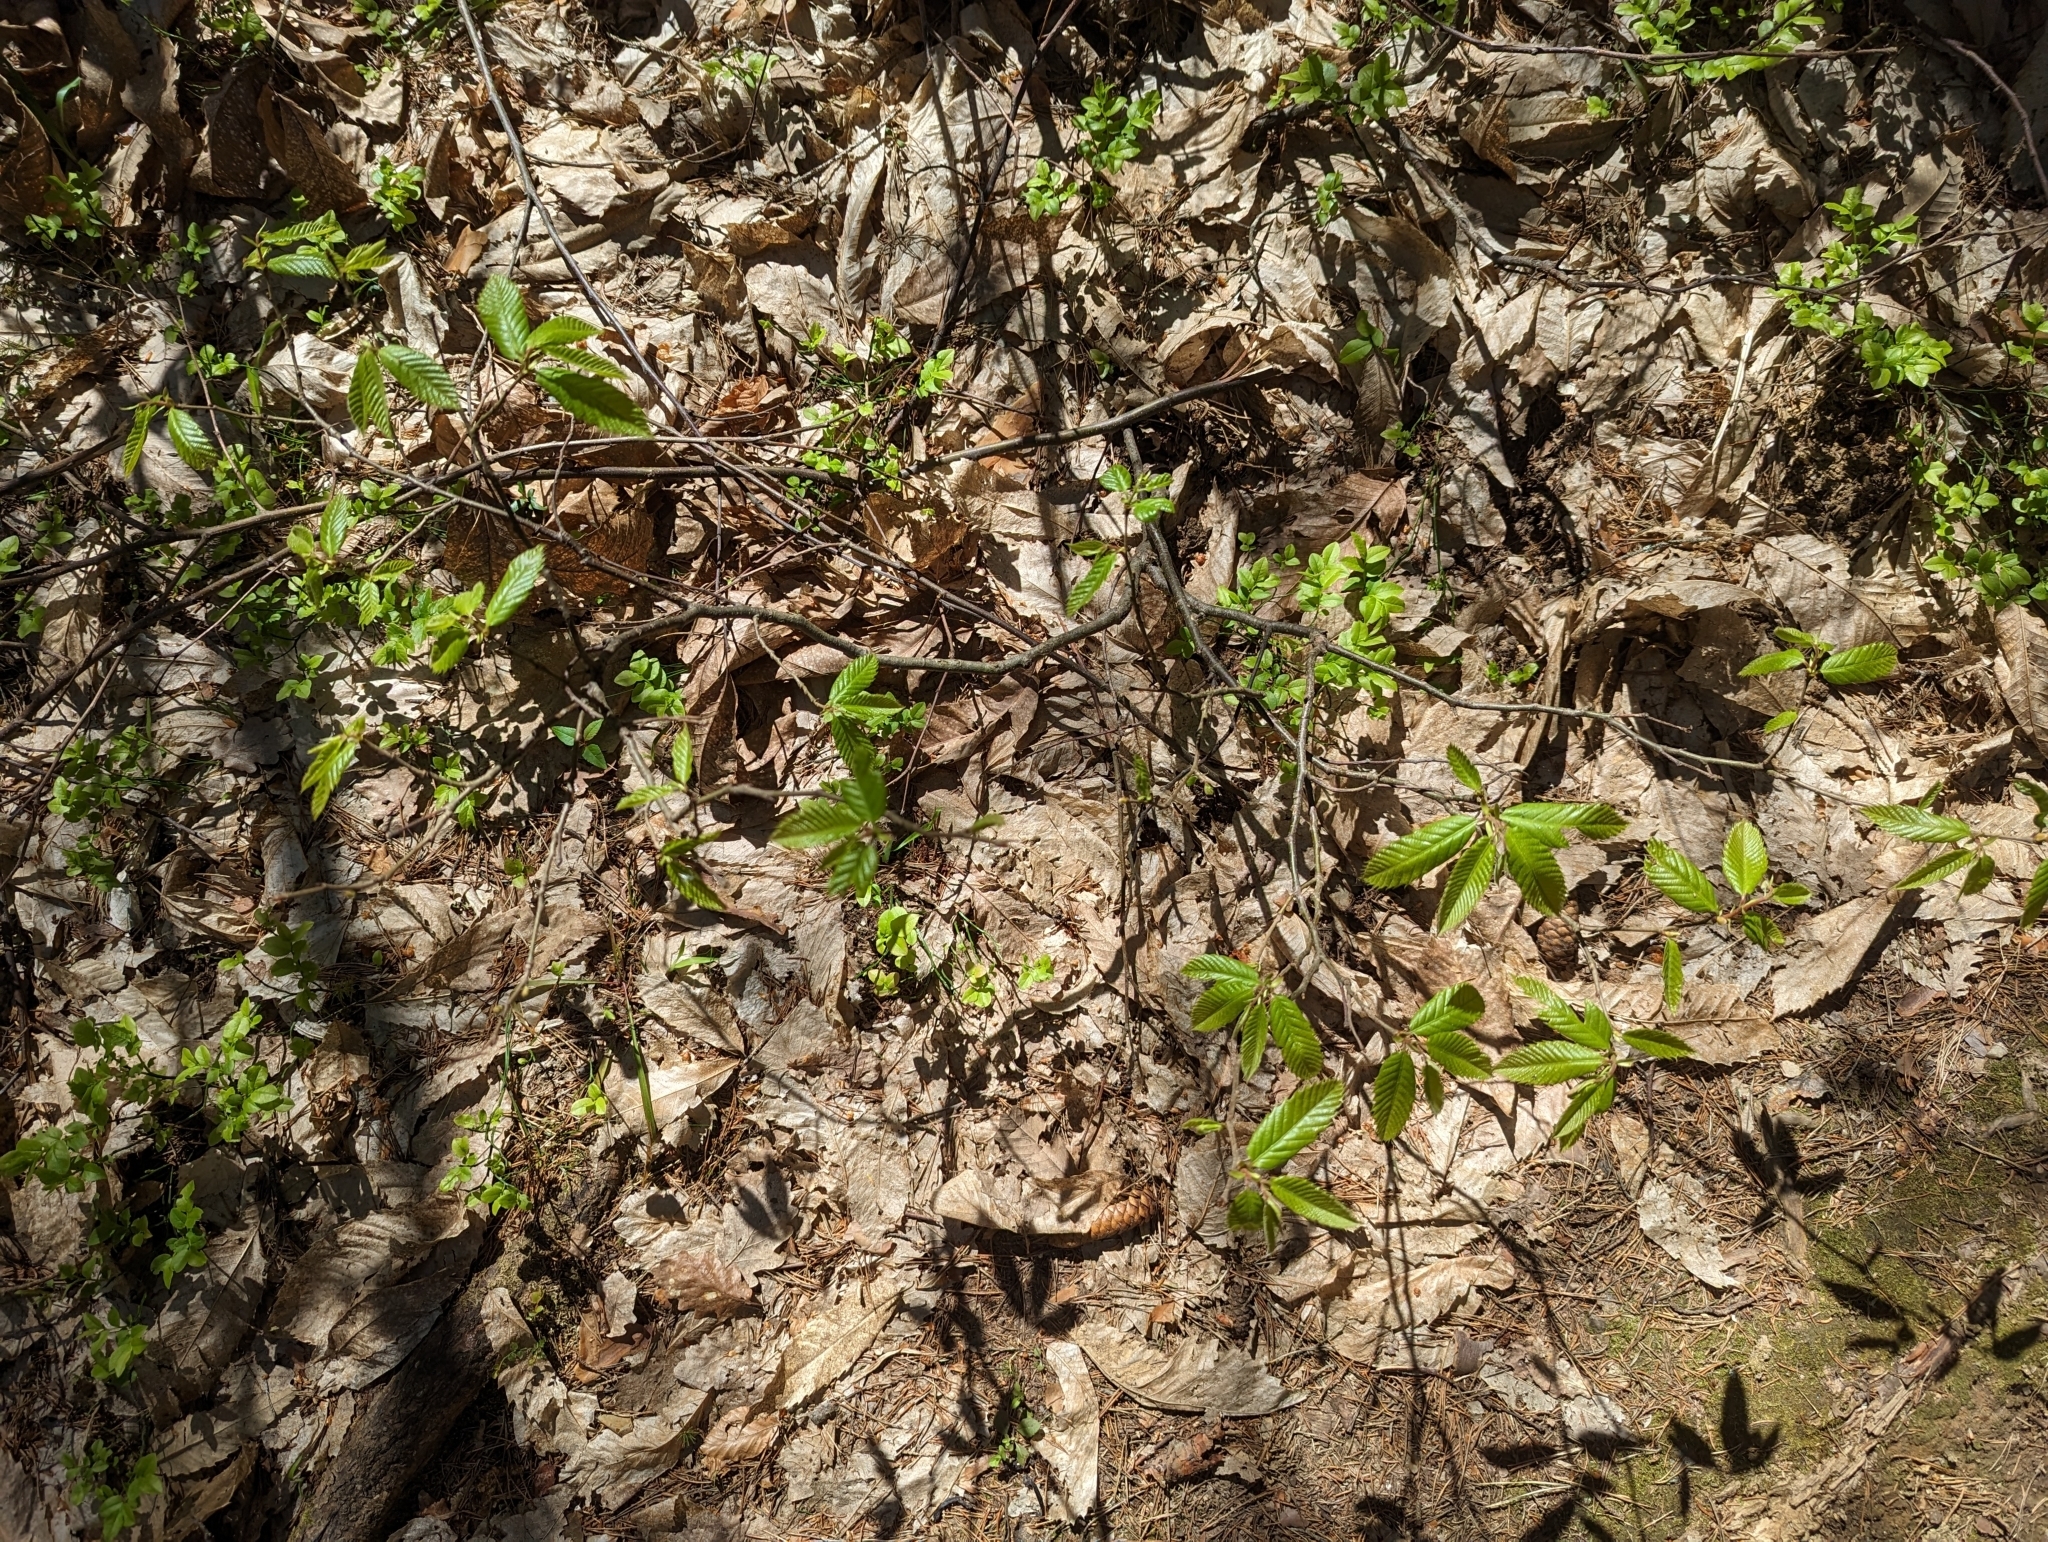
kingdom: Plantae
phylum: Tracheophyta
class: Magnoliopsida
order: Fagales
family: Fagaceae
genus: Castanea
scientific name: Castanea sativa
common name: Sweet chestnut
